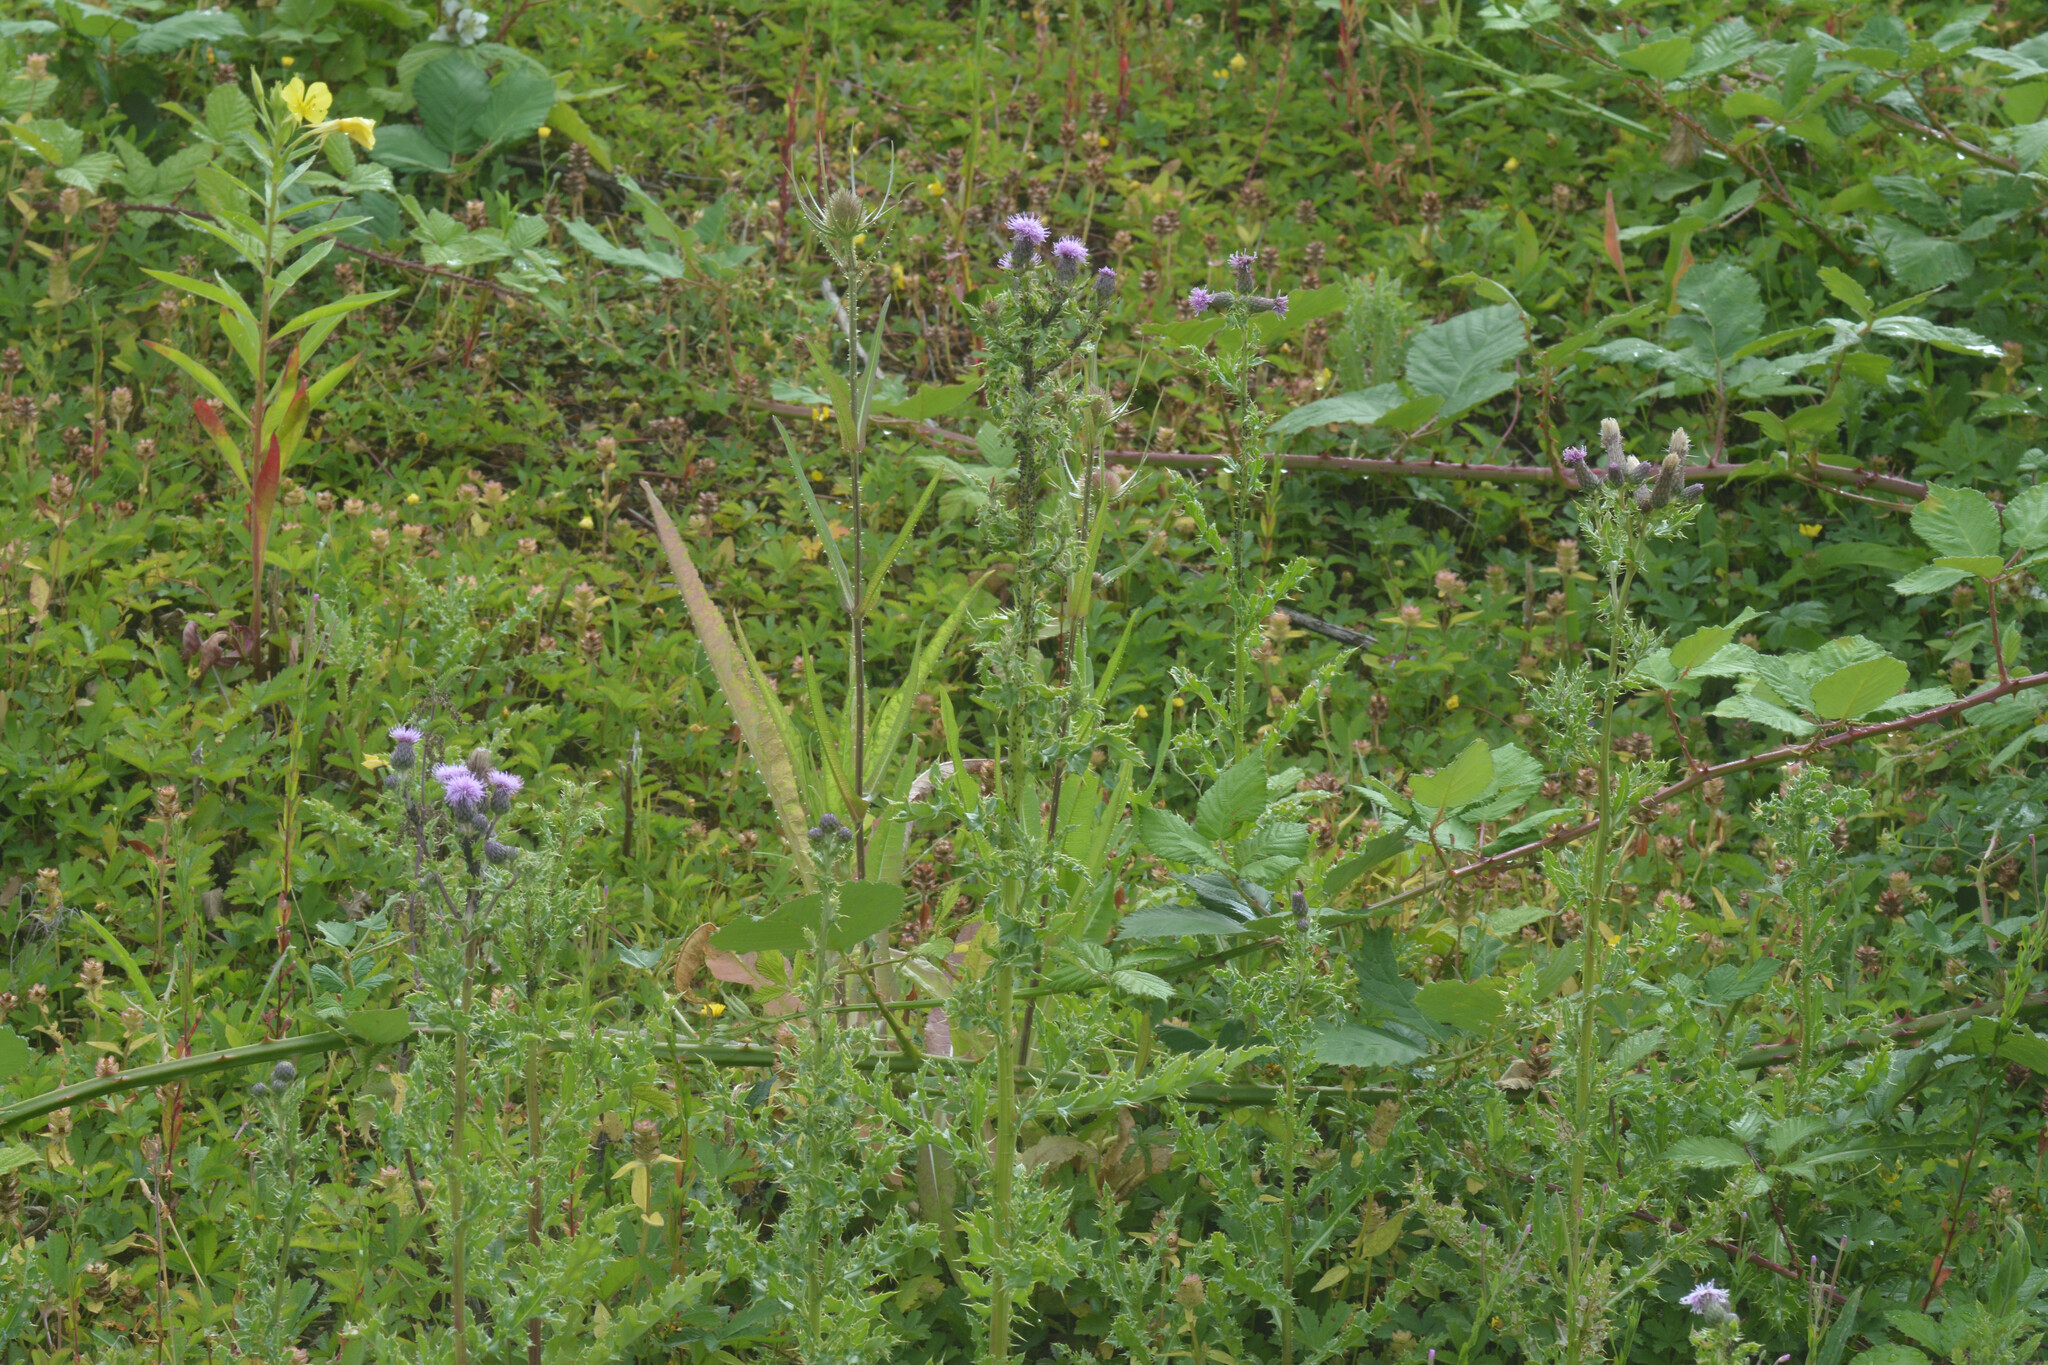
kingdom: Plantae
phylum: Tracheophyta
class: Magnoliopsida
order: Asterales
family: Asteraceae
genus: Cirsium
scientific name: Cirsium arvense
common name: Creeping thistle
